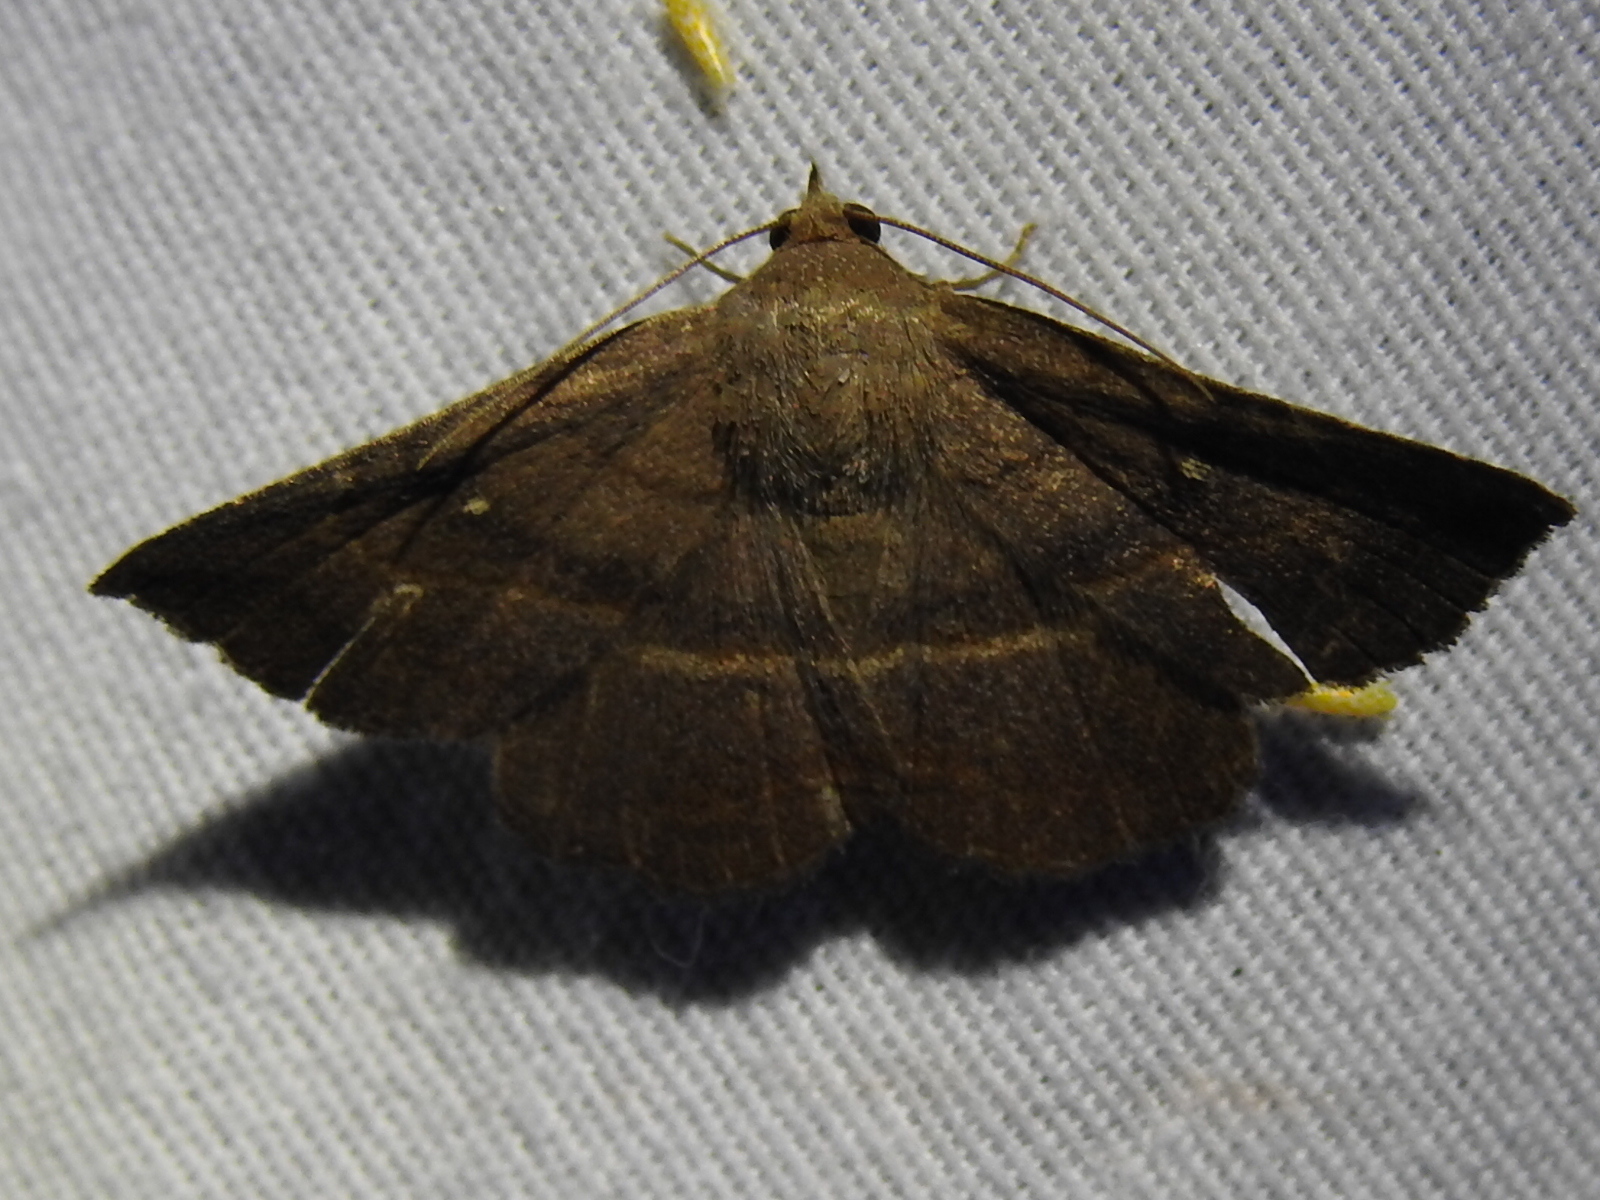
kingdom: Animalia
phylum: Arthropoda
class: Insecta
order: Lepidoptera
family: Erebidae
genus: Lesmone
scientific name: Lesmone detrahens
